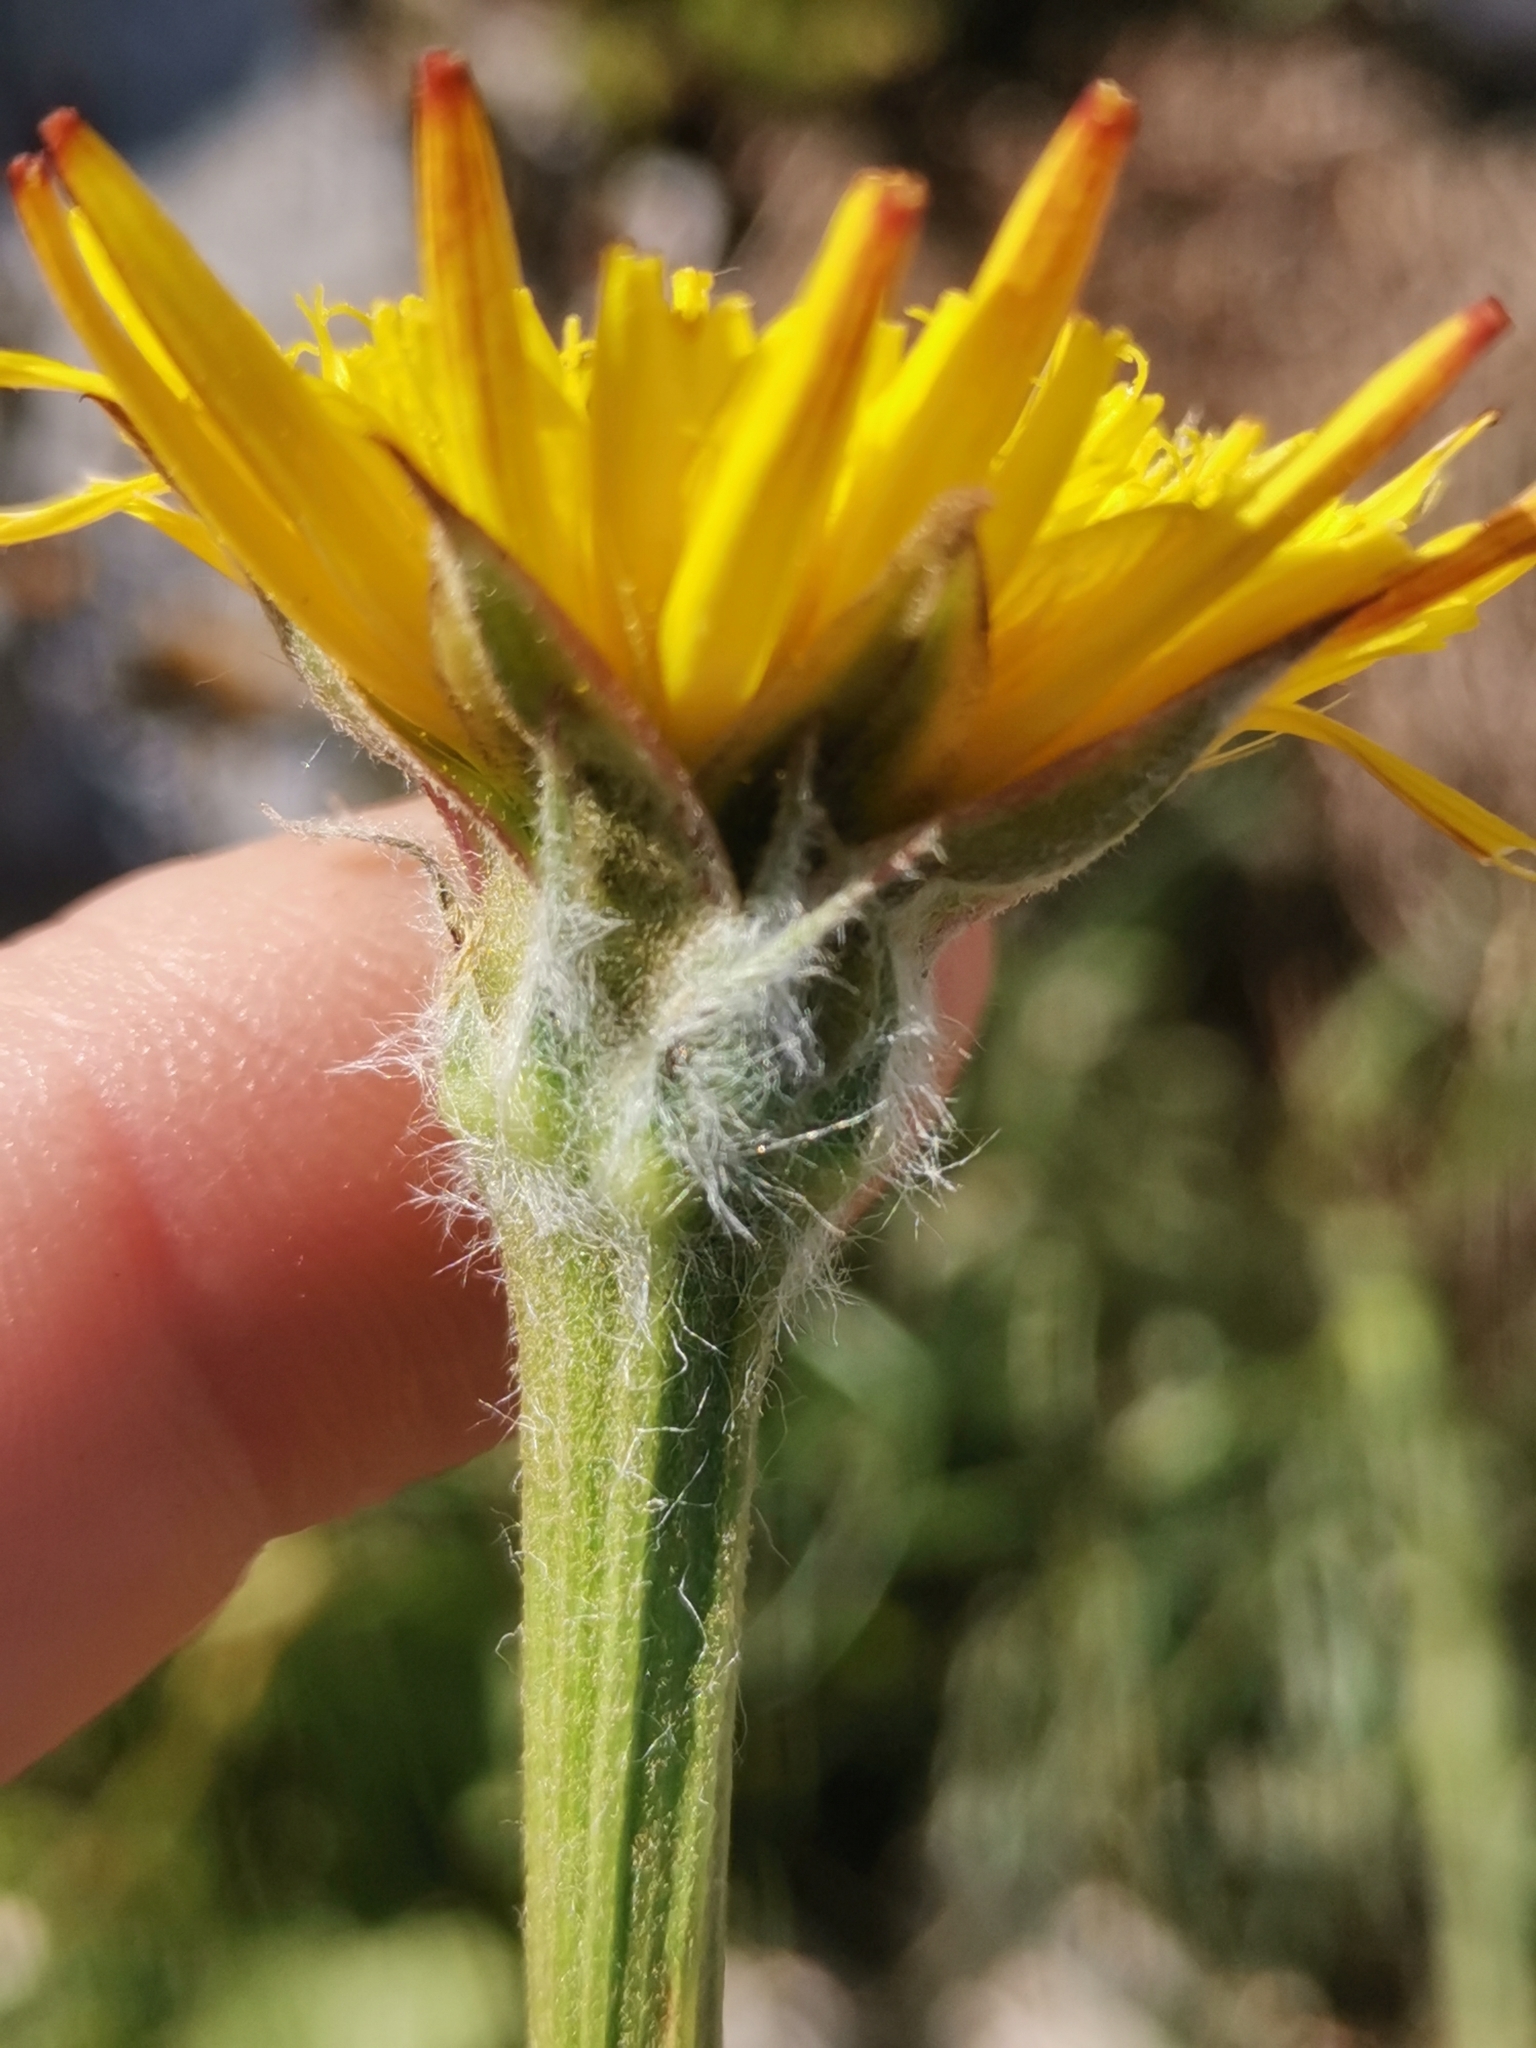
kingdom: Plantae
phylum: Tracheophyta
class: Magnoliopsida
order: Asterales
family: Asteraceae
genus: Gelasia
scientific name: Gelasia villosa
